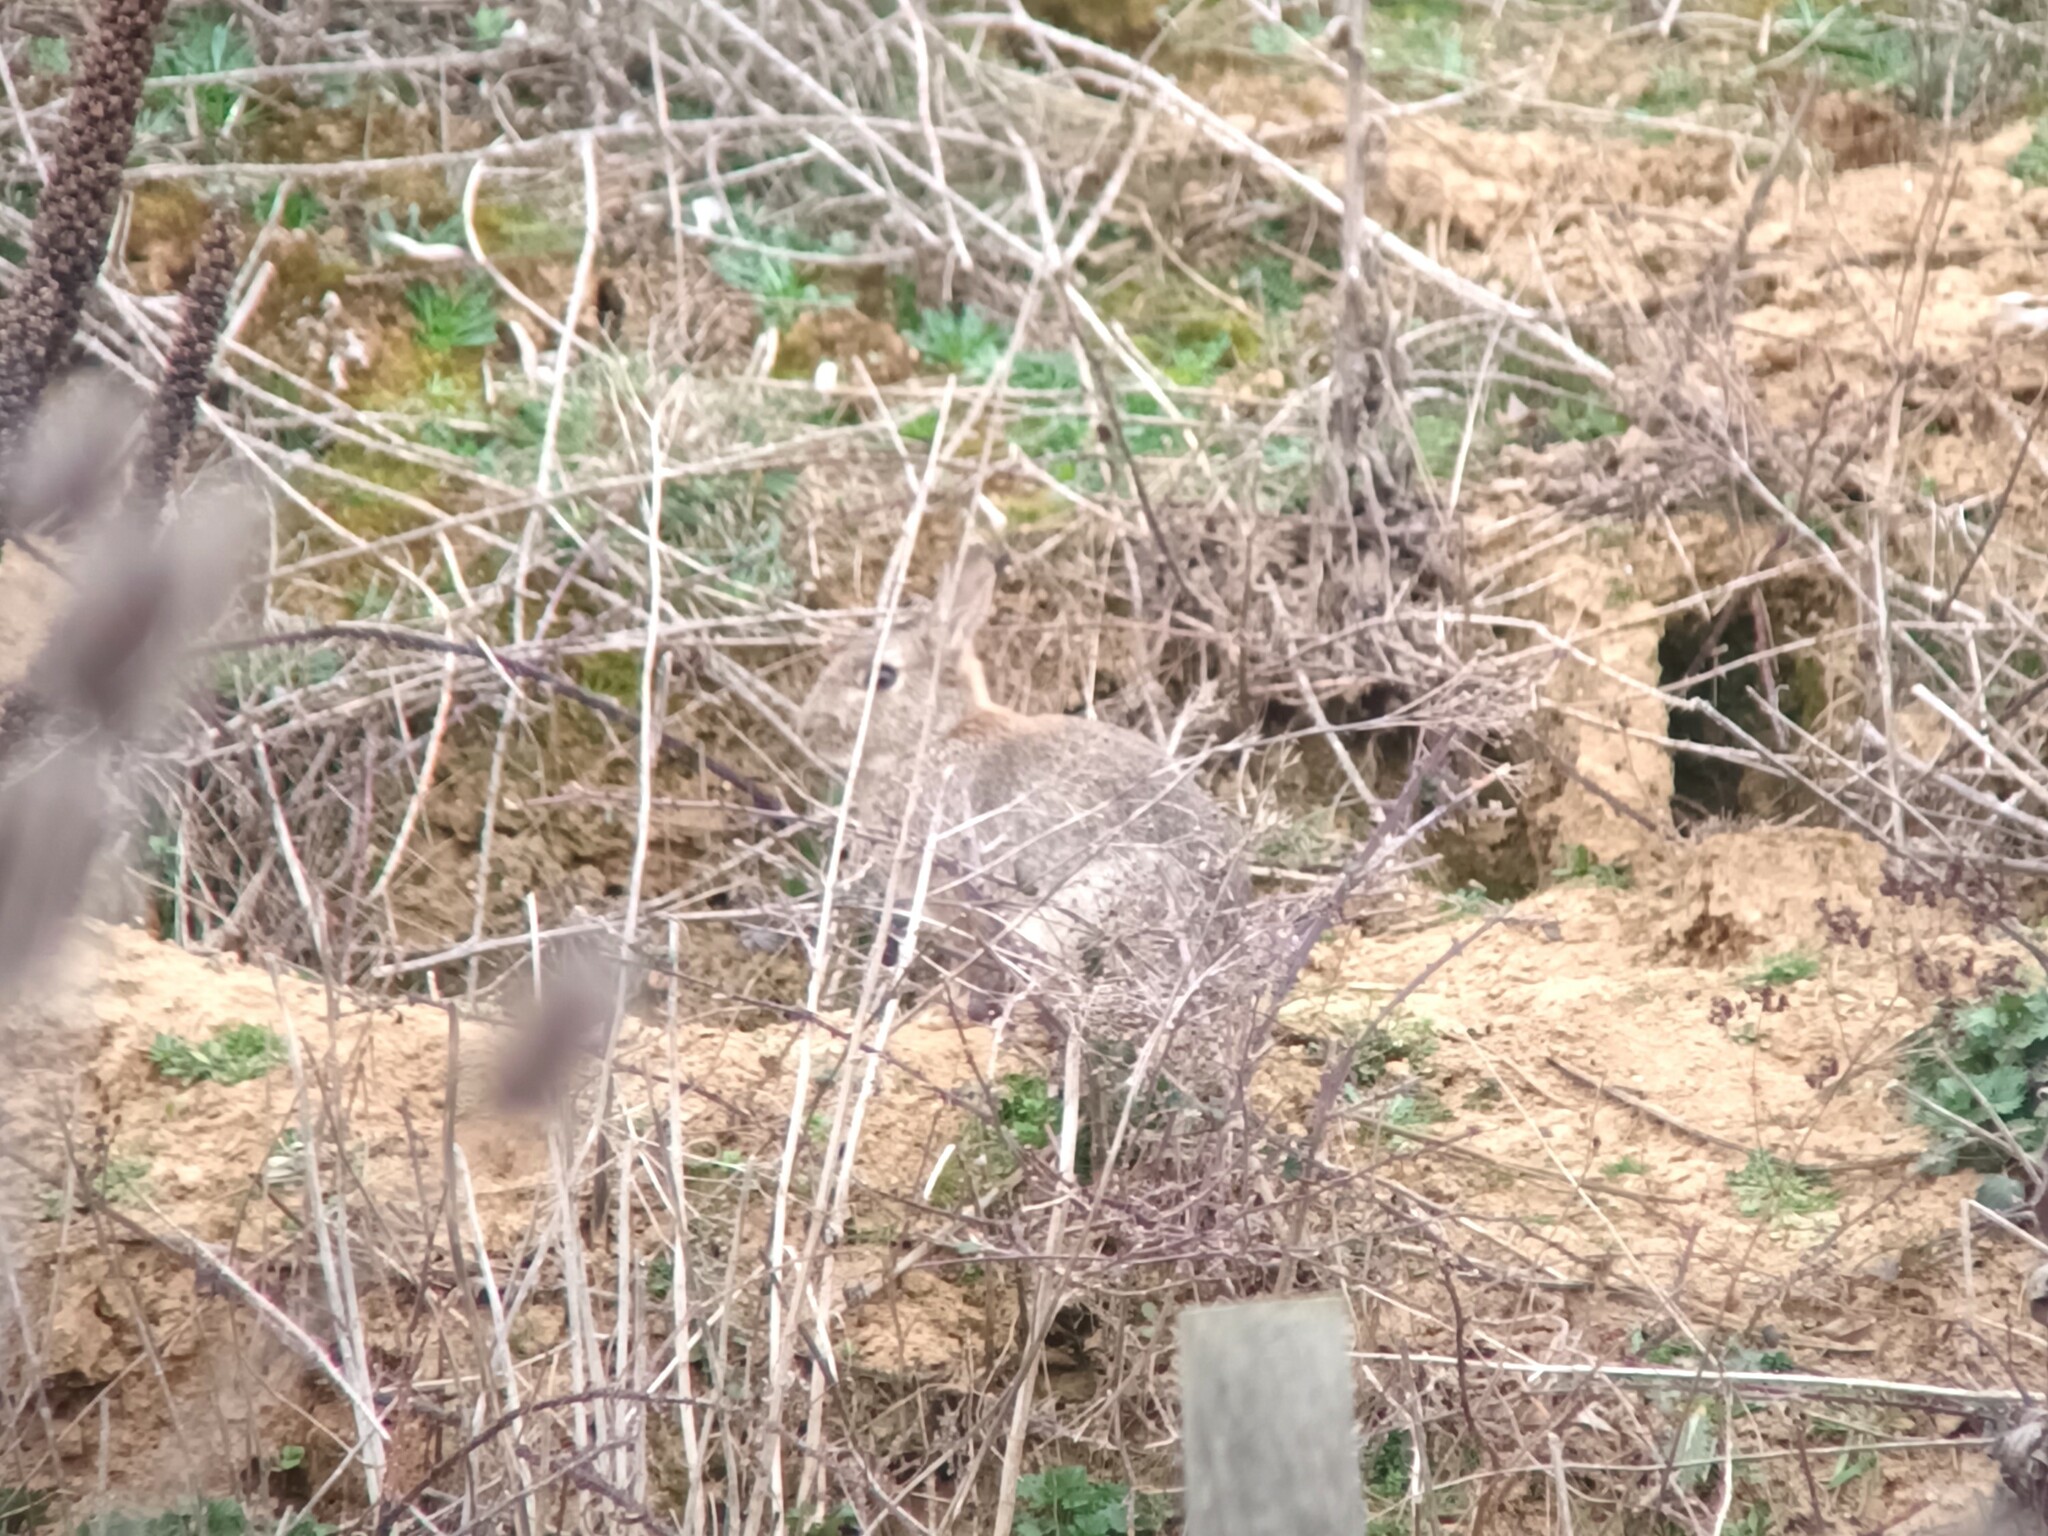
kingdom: Animalia
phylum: Chordata
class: Mammalia
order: Lagomorpha
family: Leporidae
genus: Oryctolagus
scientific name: Oryctolagus cuniculus
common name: European rabbit
